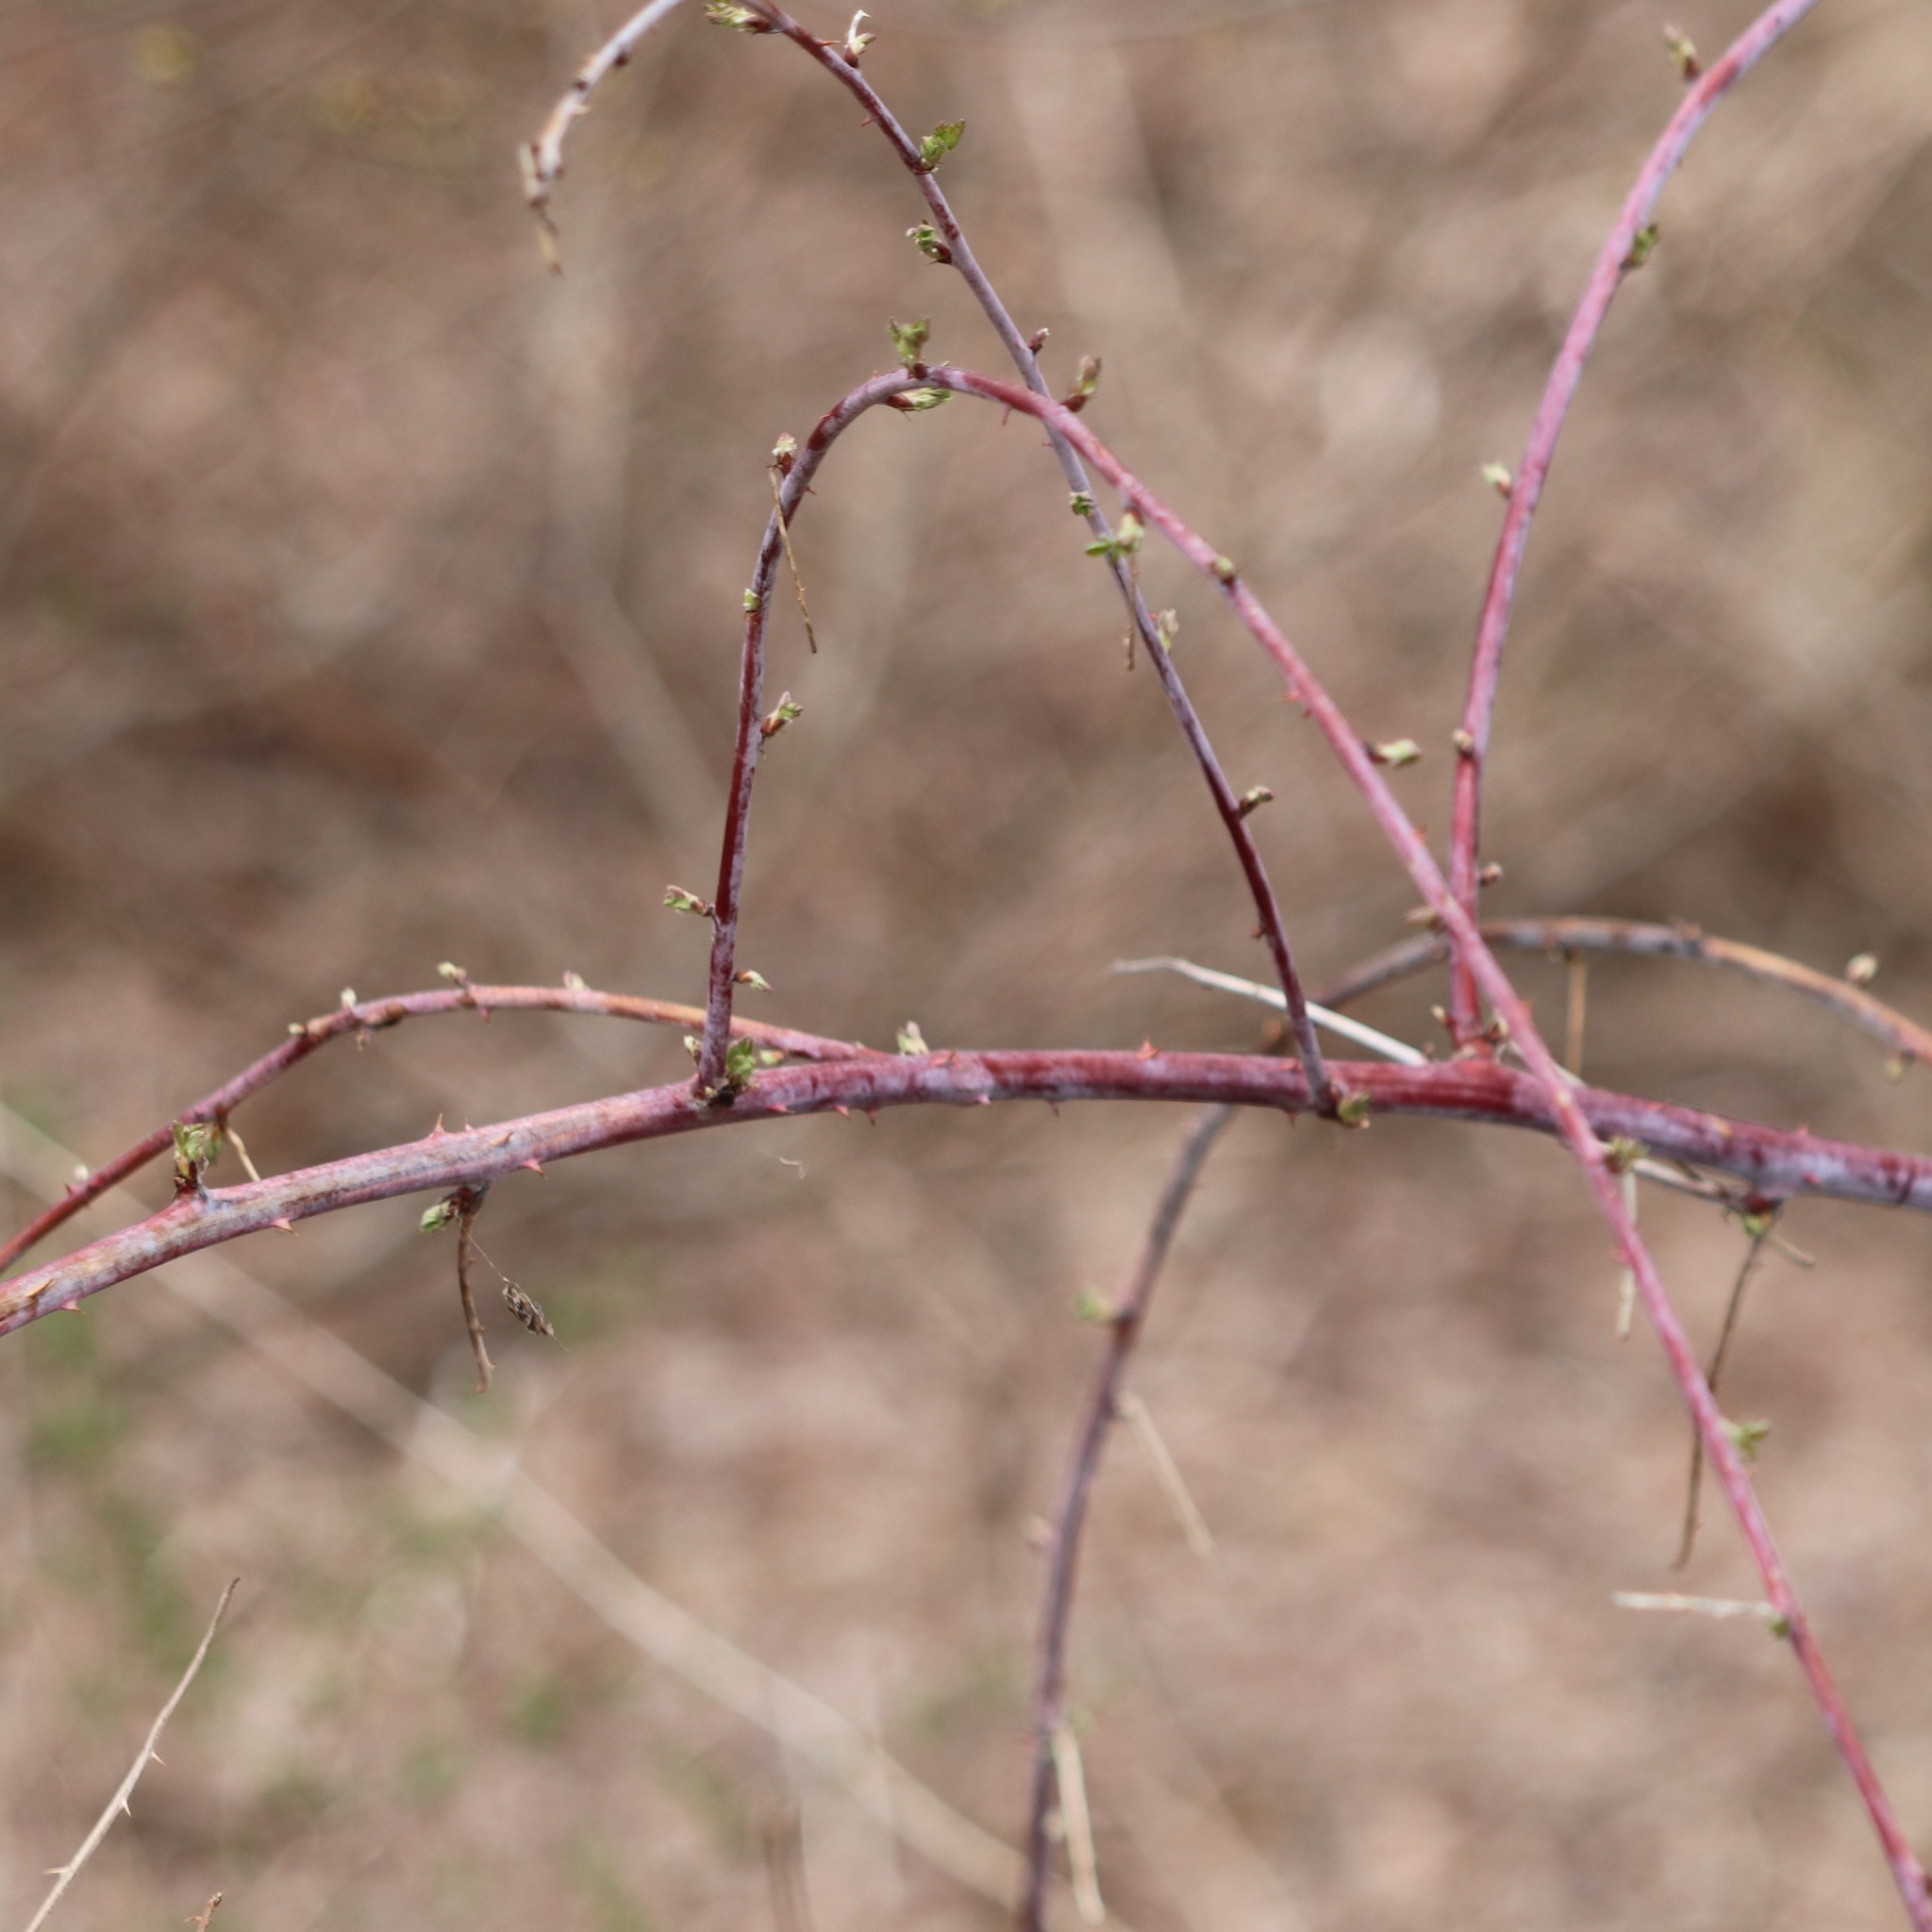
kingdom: Plantae
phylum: Tracheophyta
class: Magnoliopsida
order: Rosales
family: Rosaceae
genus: Rubus
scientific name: Rubus occidentalis
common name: Black raspberry
